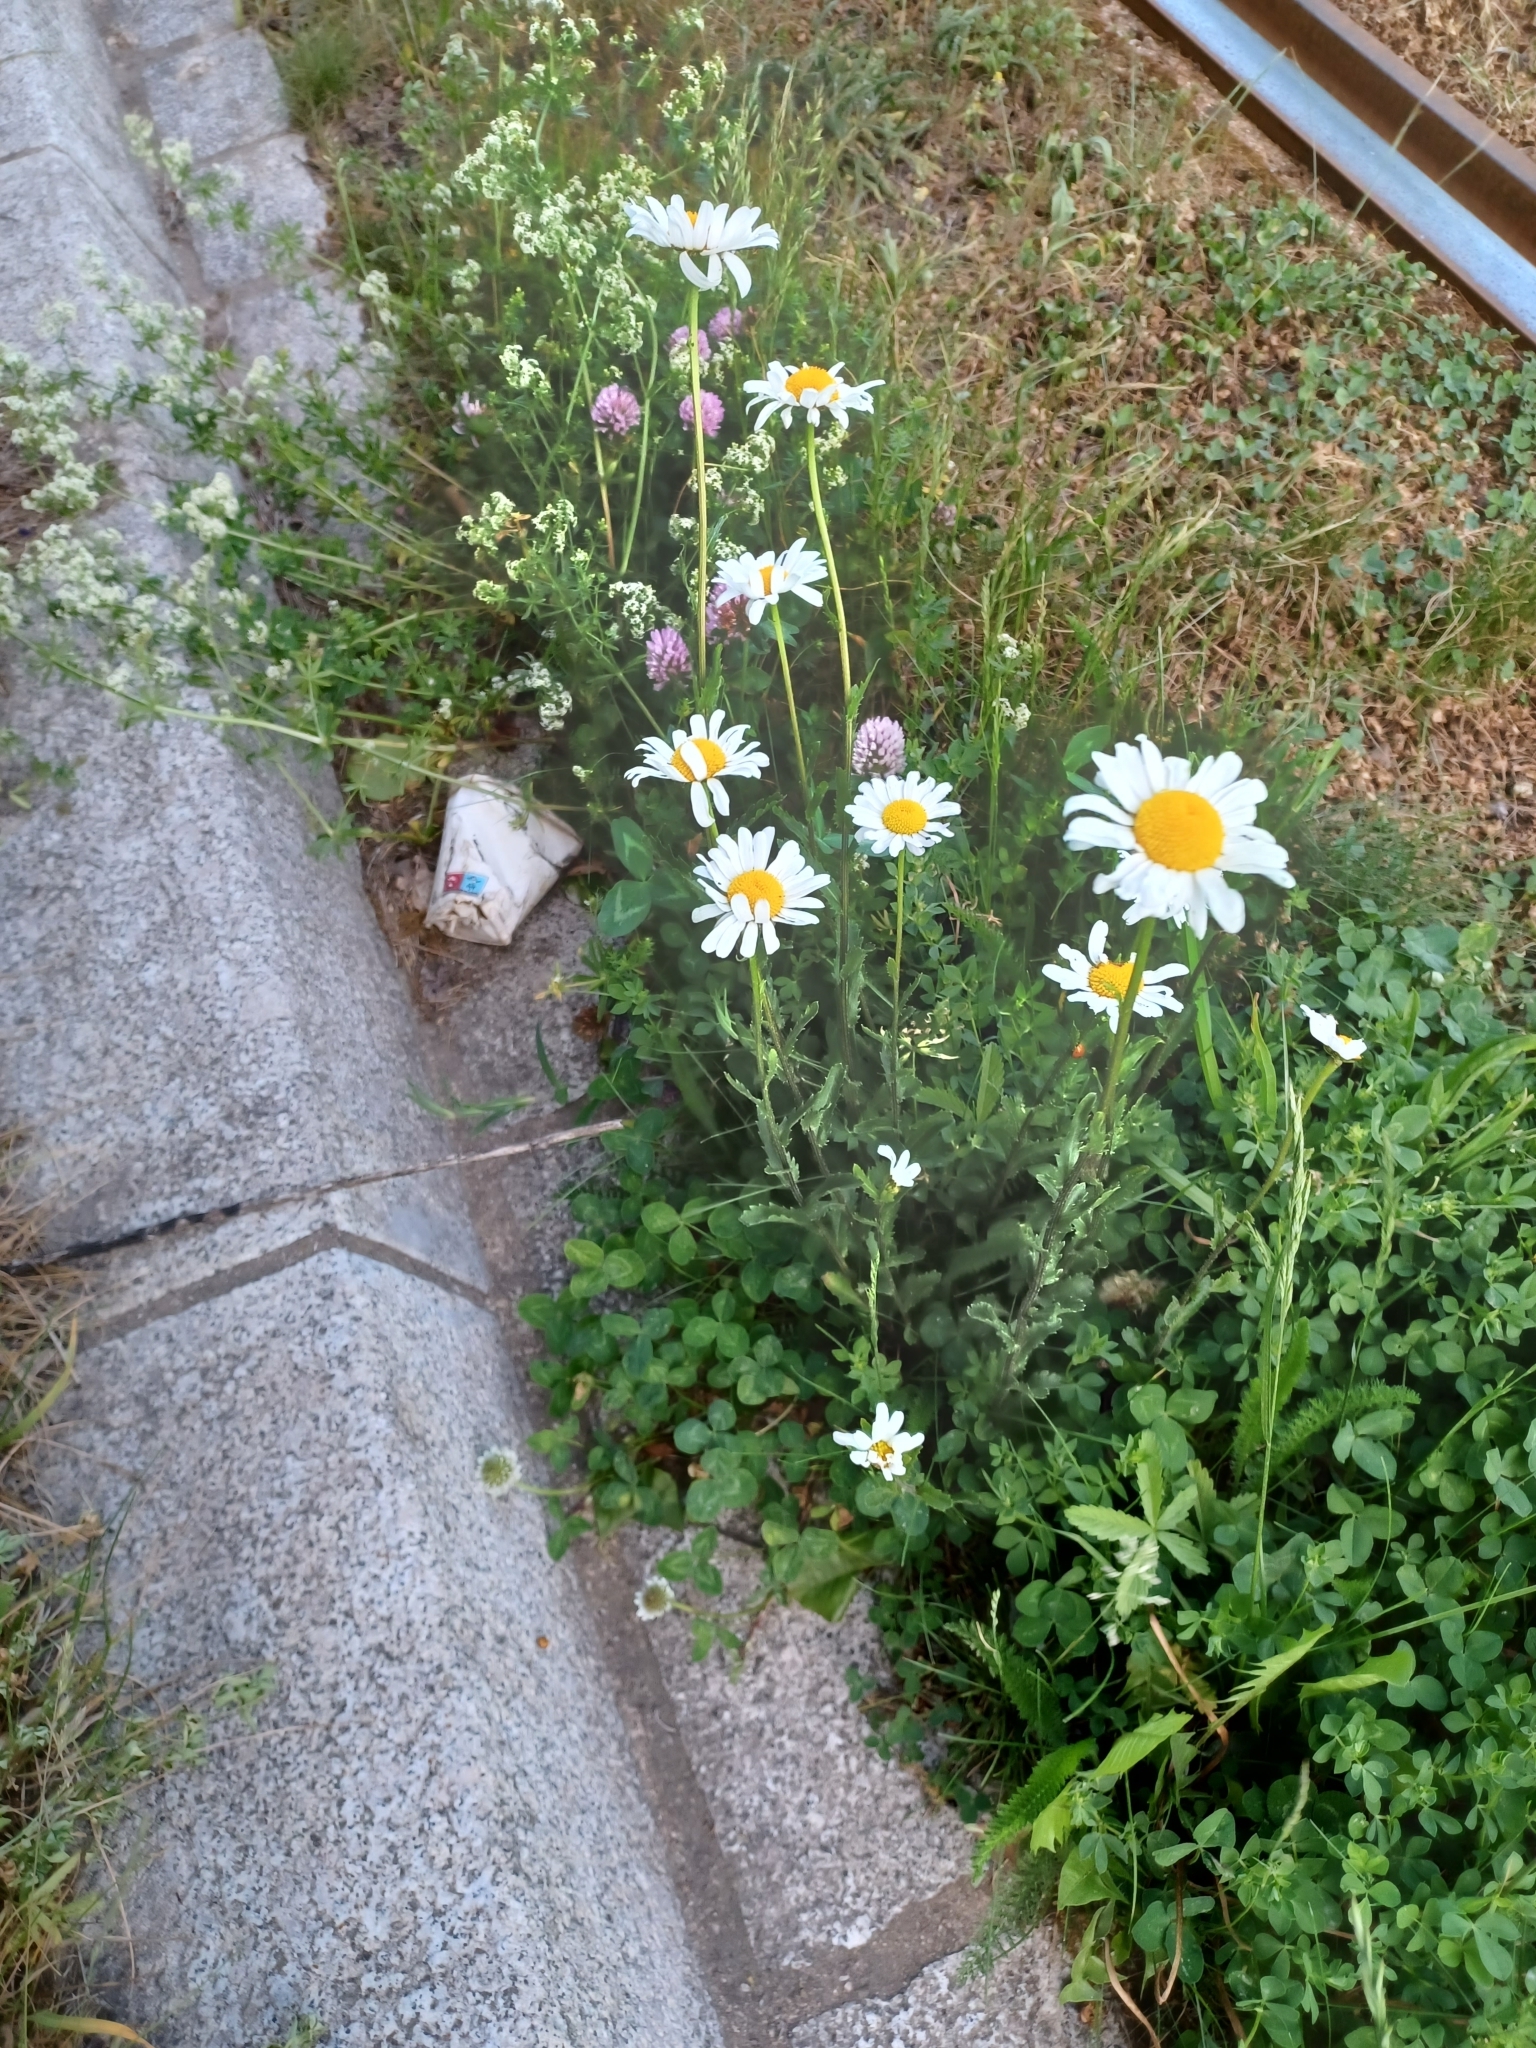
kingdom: Plantae
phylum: Tracheophyta
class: Magnoliopsida
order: Asterales
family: Asteraceae
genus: Leucanthemum
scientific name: Leucanthemum vulgare
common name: Oxeye daisy
